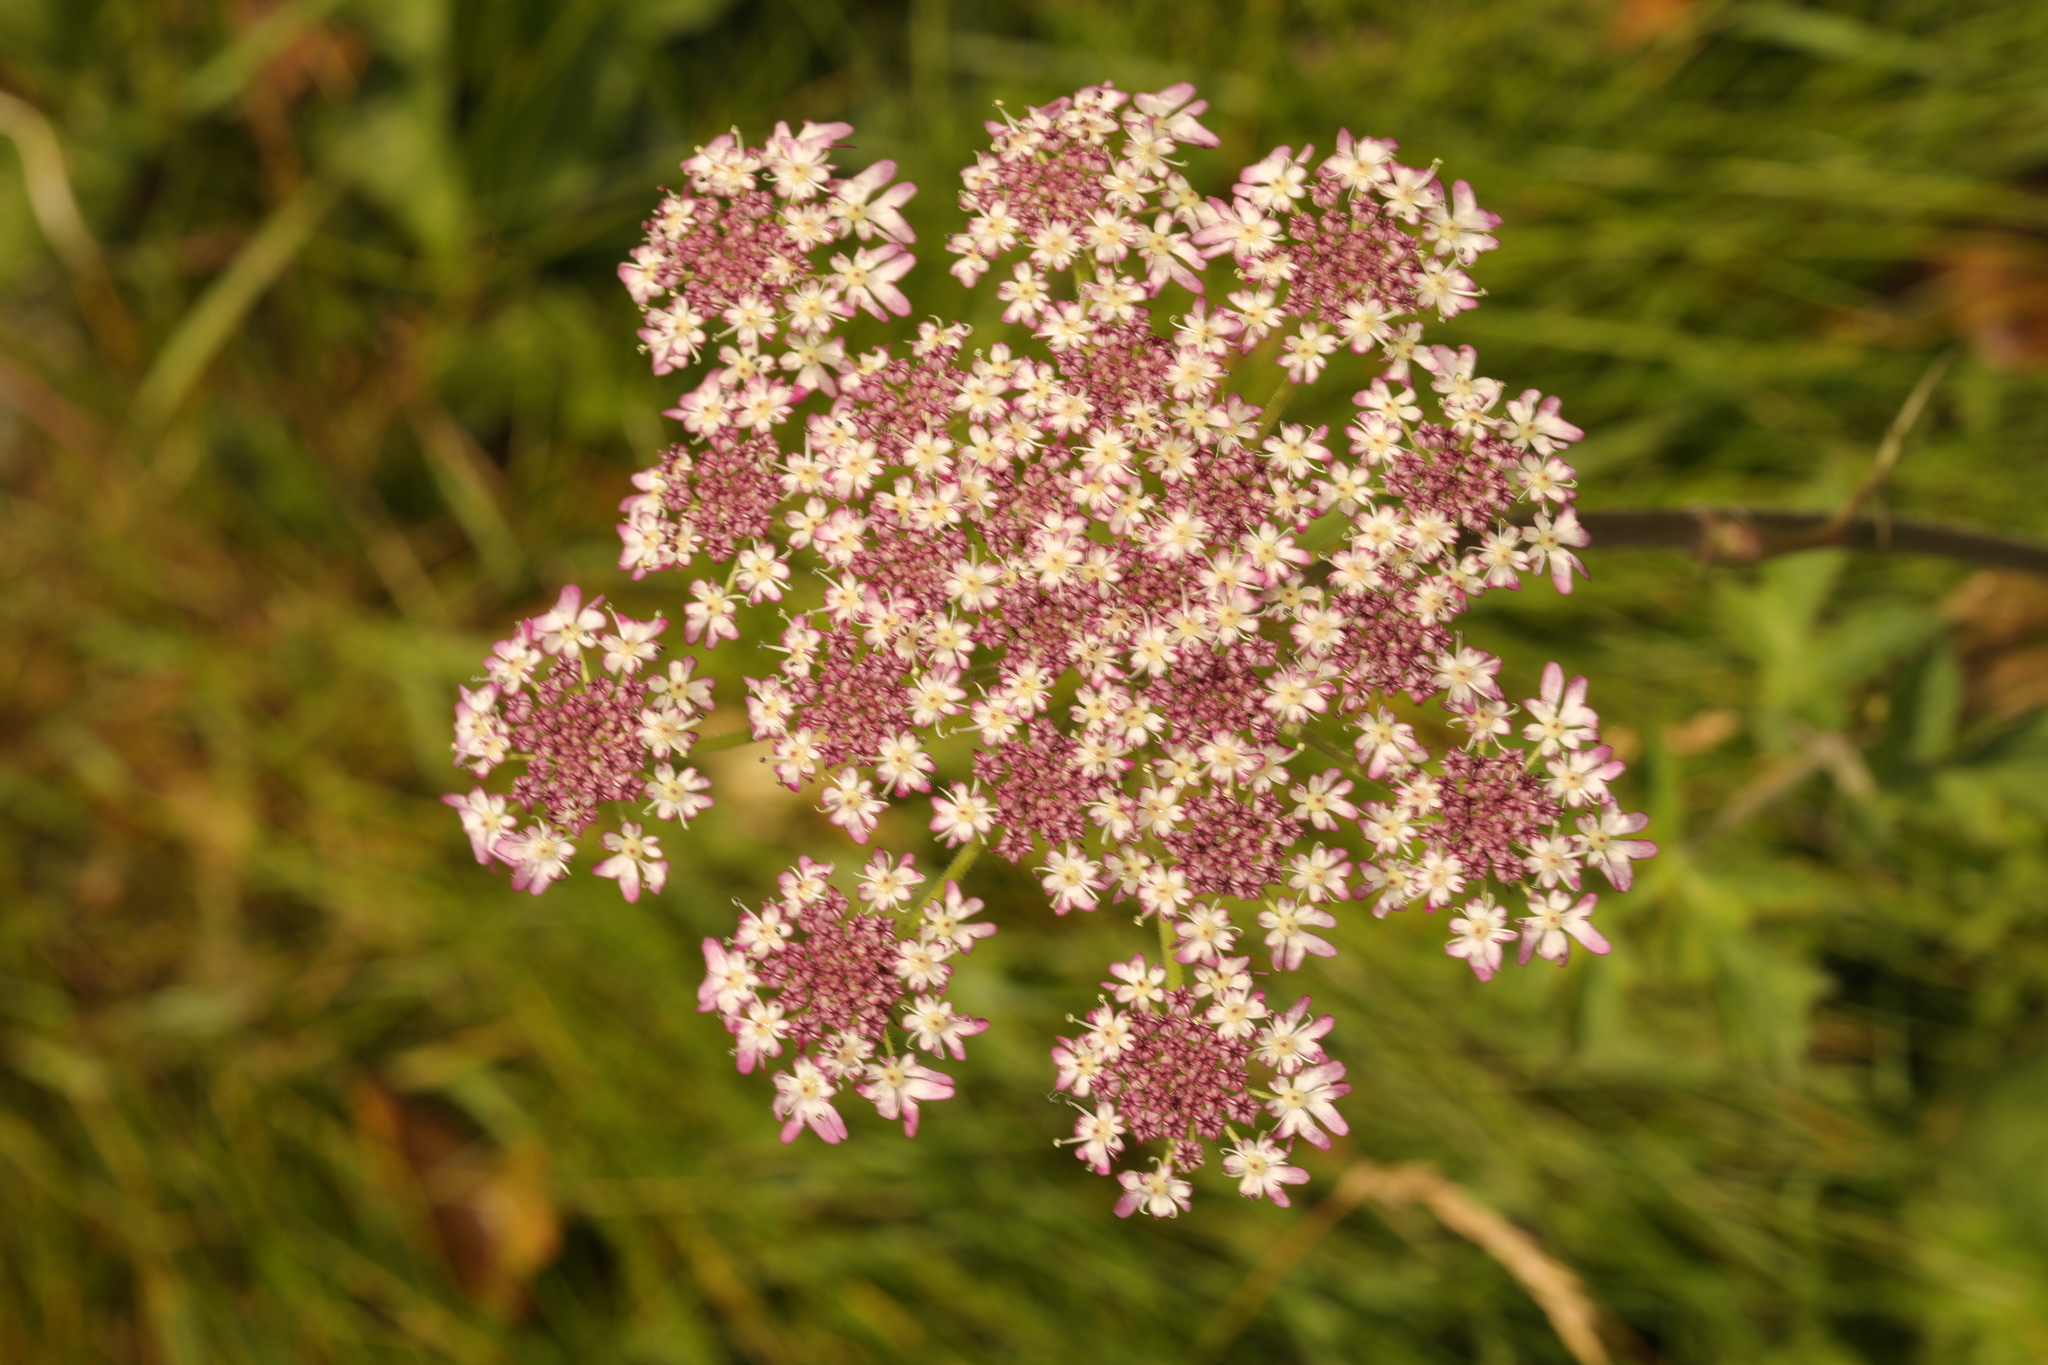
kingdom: Plantae
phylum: Tracheophyta
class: Magnoliopsida
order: Apiales
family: Apiaceae
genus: Heracleum
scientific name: Heracleum sphondylium
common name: Hogweed
